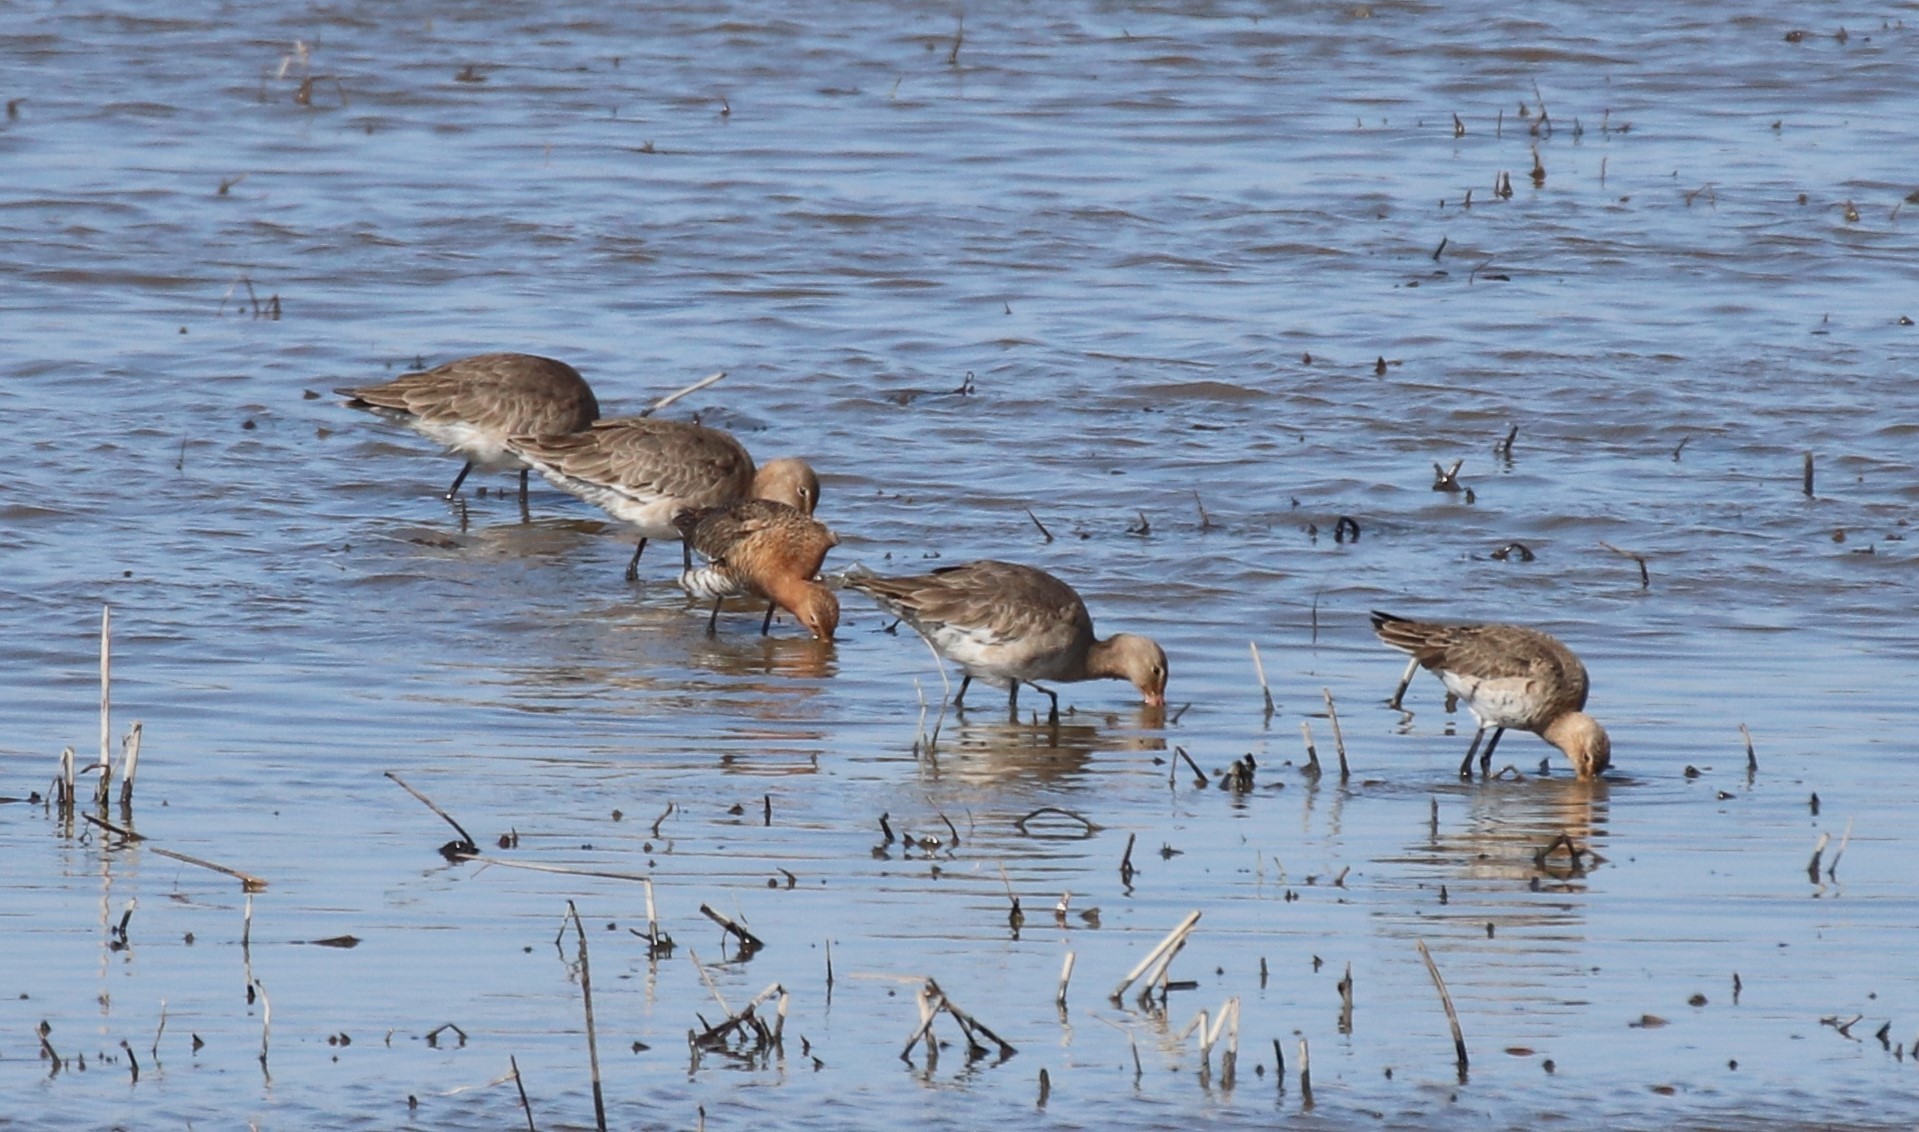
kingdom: Animalia
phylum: Chordata
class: Aves
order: Charadriiformes
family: Scolopacidae
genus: Limosa
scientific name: Limosa limosa
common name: Black-tailed godwit
